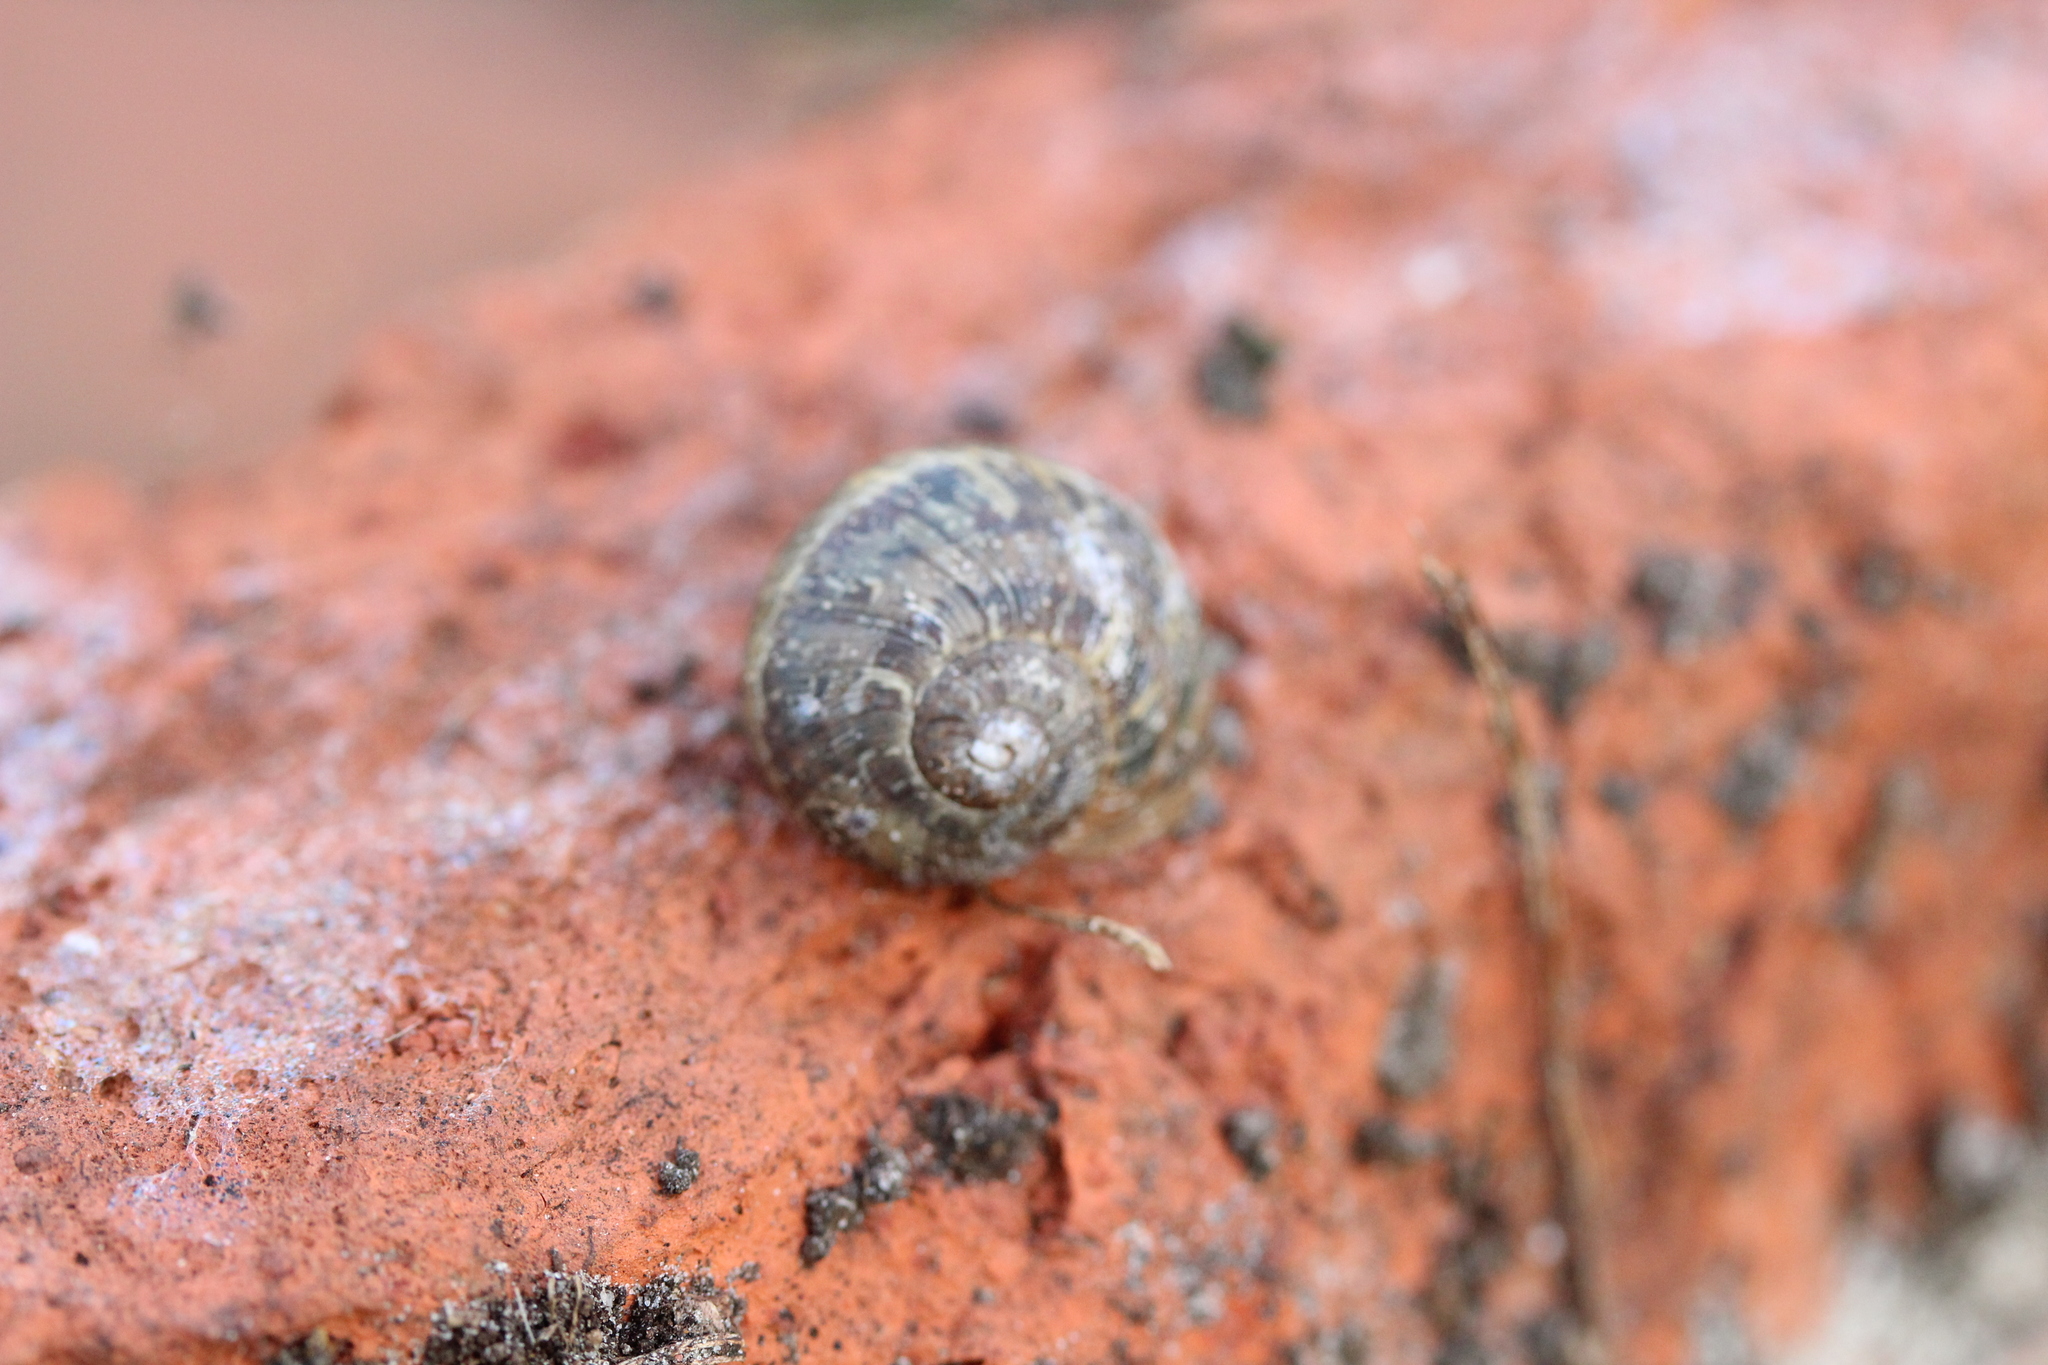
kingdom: Animalia
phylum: Mollusca
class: Gastropoda
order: Stylommatophora
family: Helicidae
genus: Cornu
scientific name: Cornu aspersum
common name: Brown garden snail
